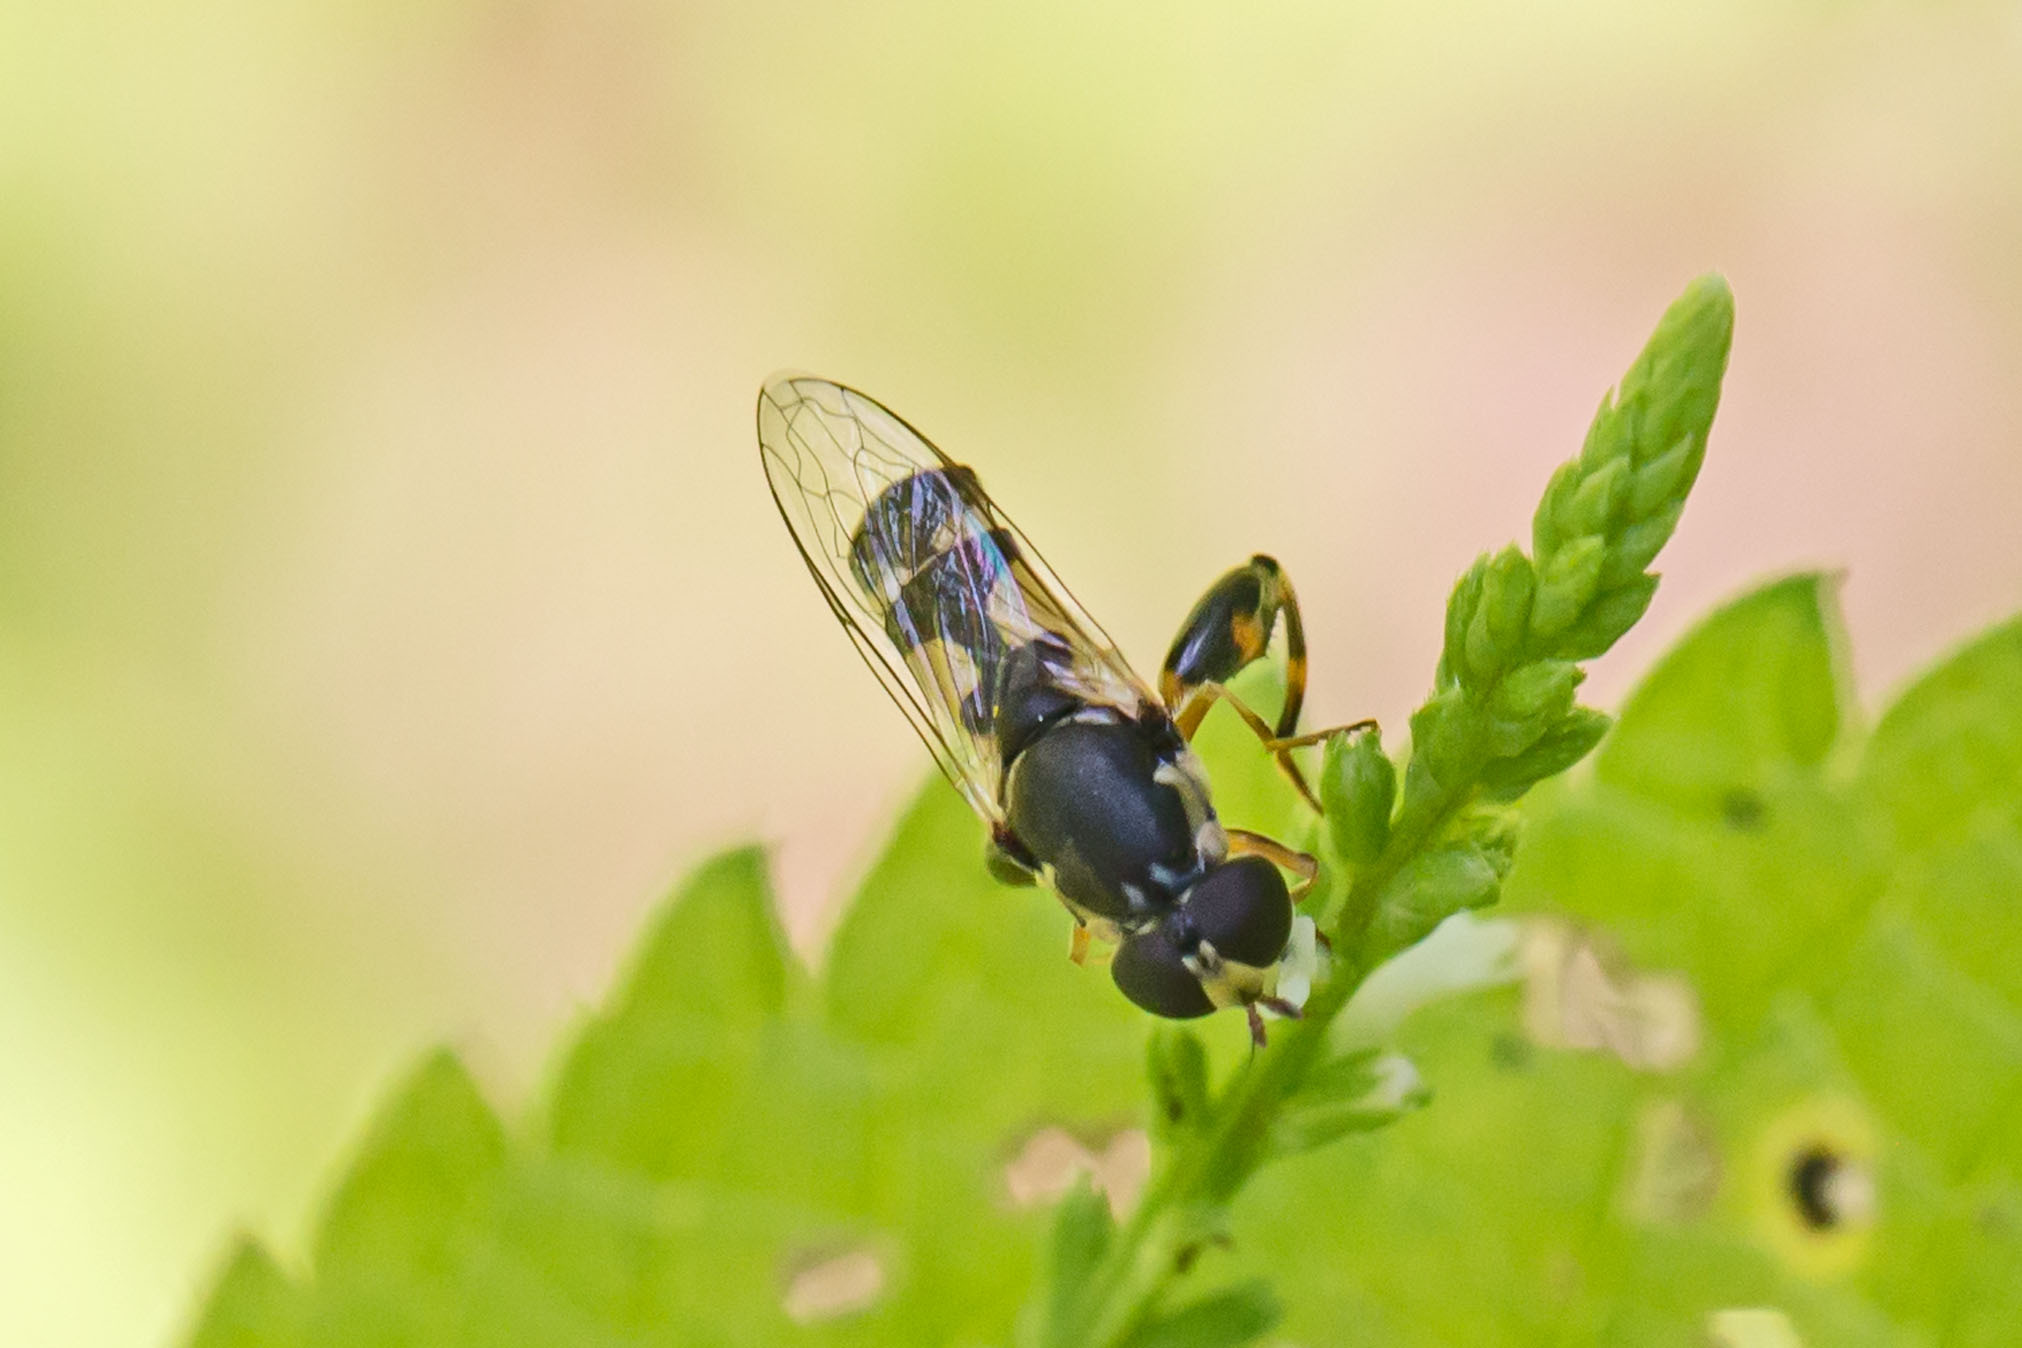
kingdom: Animalia
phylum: Arthropoda
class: Insecta
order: Diptera
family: Syrphidae
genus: Syritta
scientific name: Syritta pipiens
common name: Hover fly
